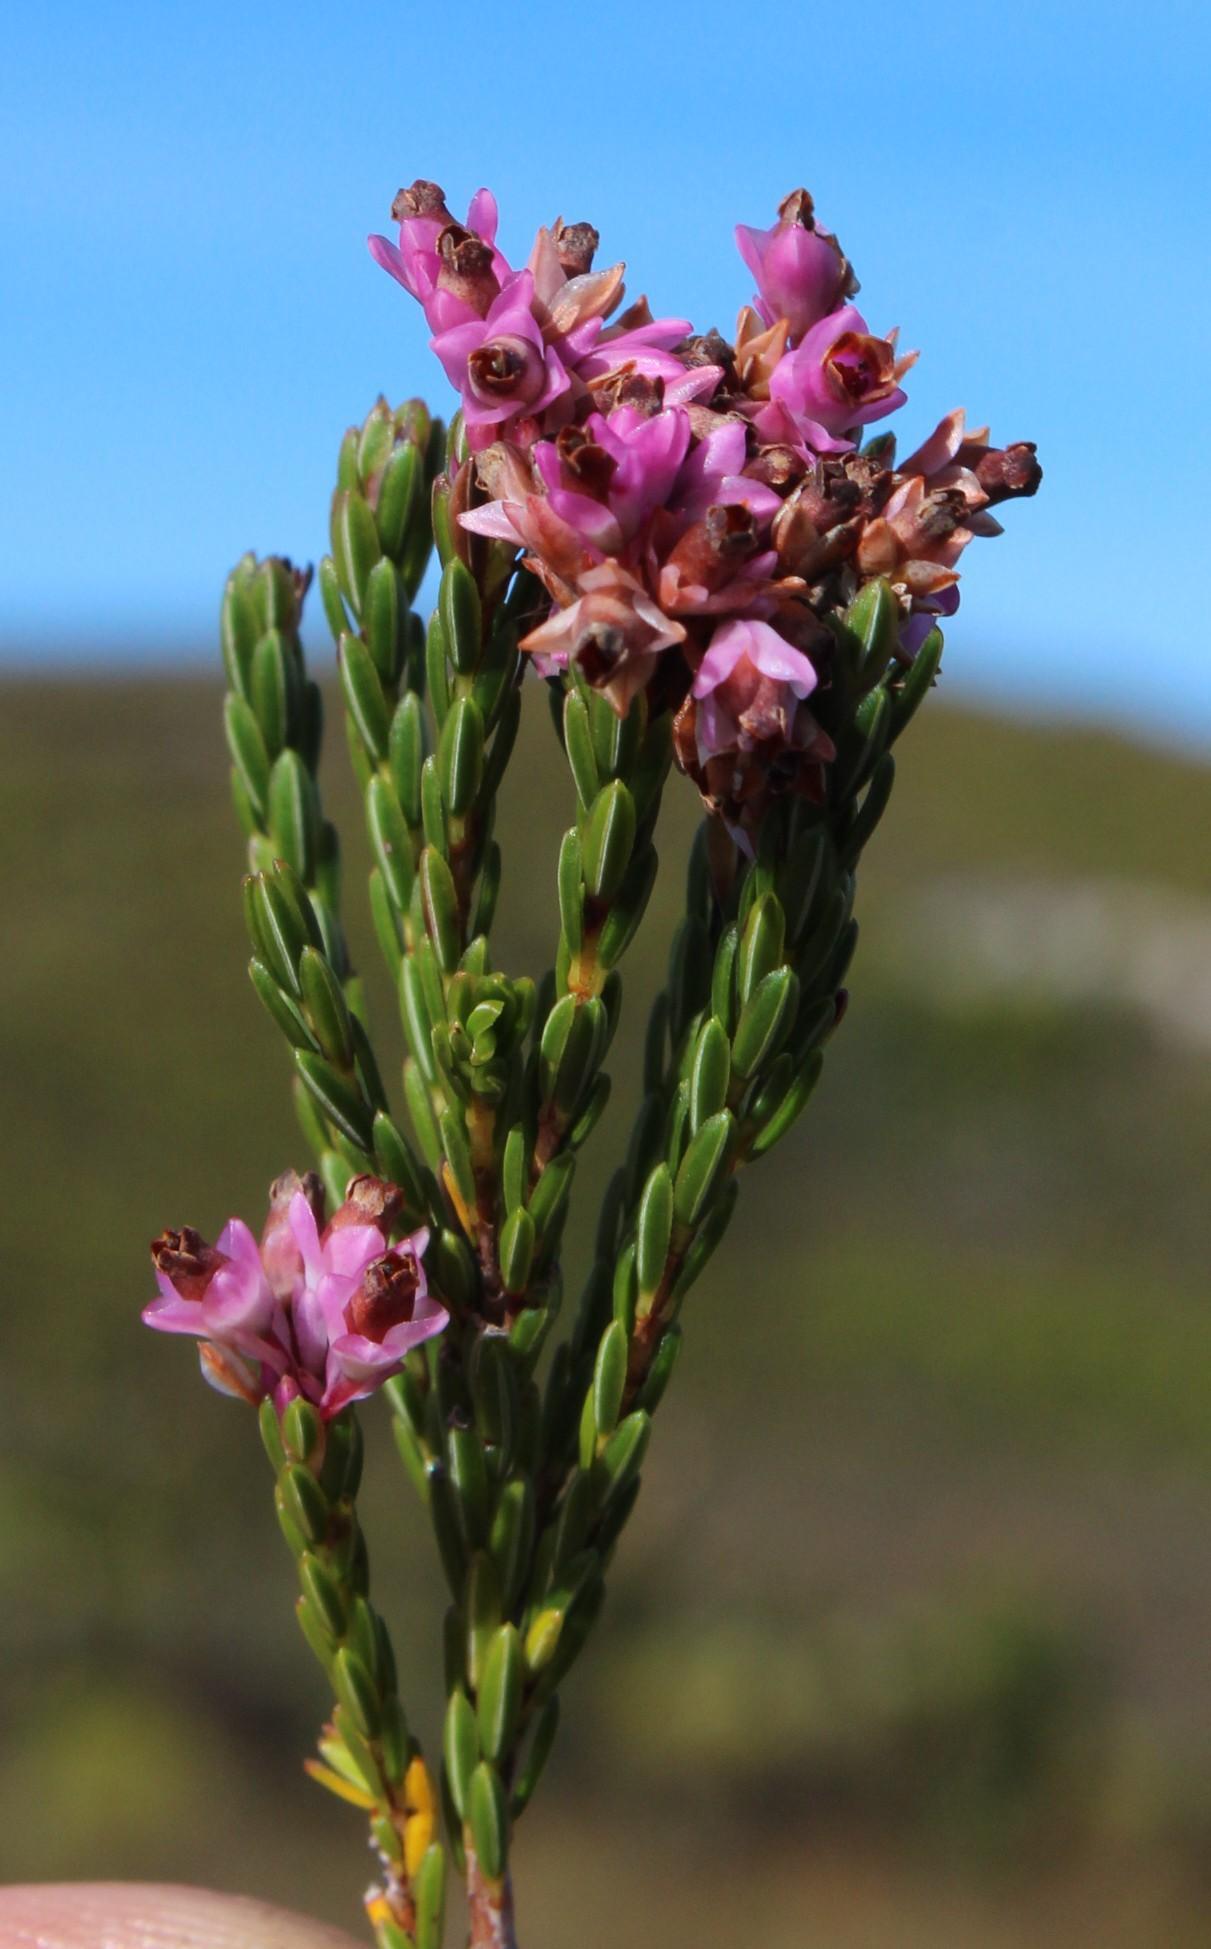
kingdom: Plantae
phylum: Tracheophyta
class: Magnoliopsida
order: Ericales
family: Ericaceae
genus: Erica
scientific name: Erica corifolia
